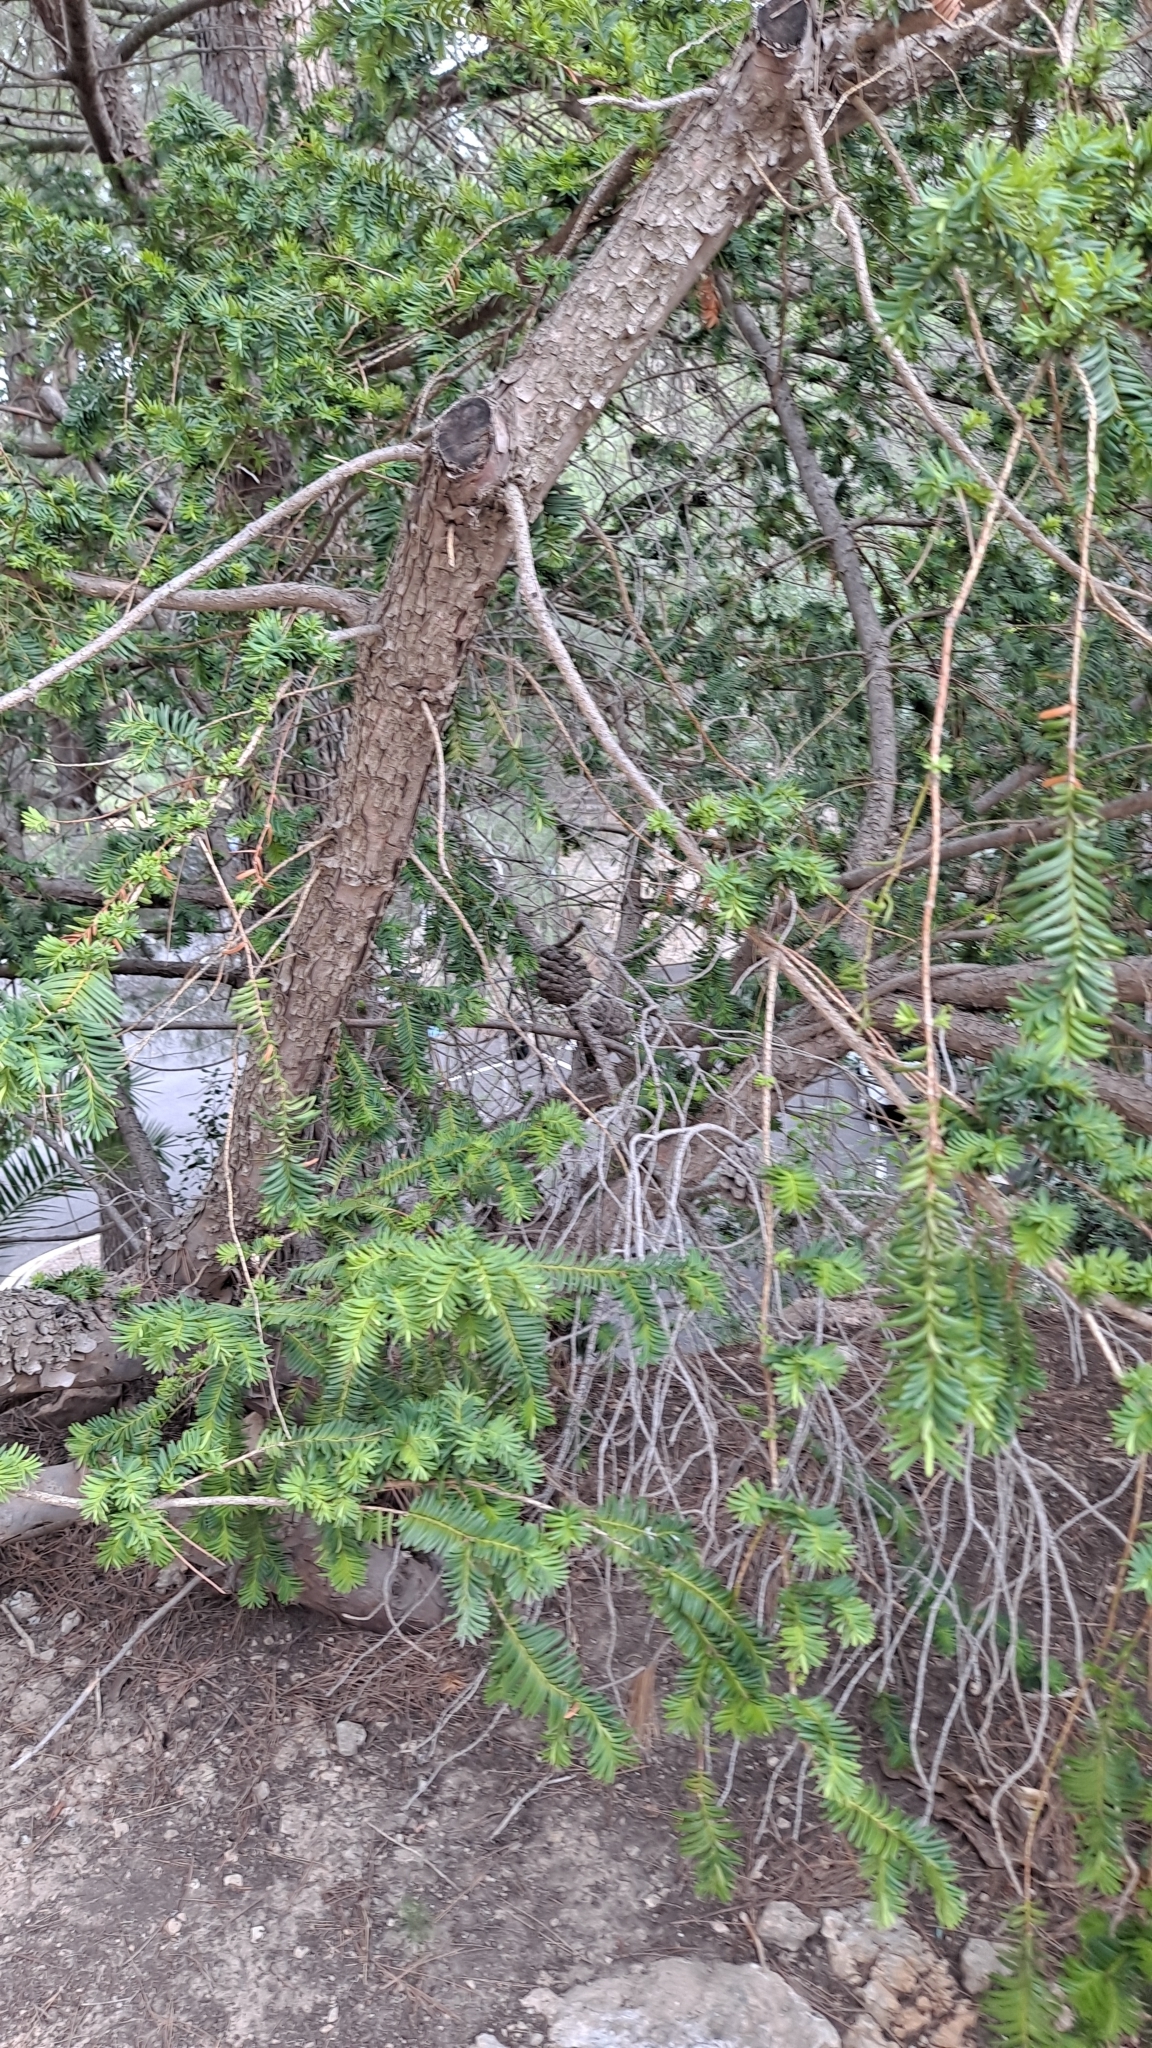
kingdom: Plantae
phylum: Tracheophyta
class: Pinopsida
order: Pinales
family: Taxaceae
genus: Taxus
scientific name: Taxus baccata
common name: Yew
